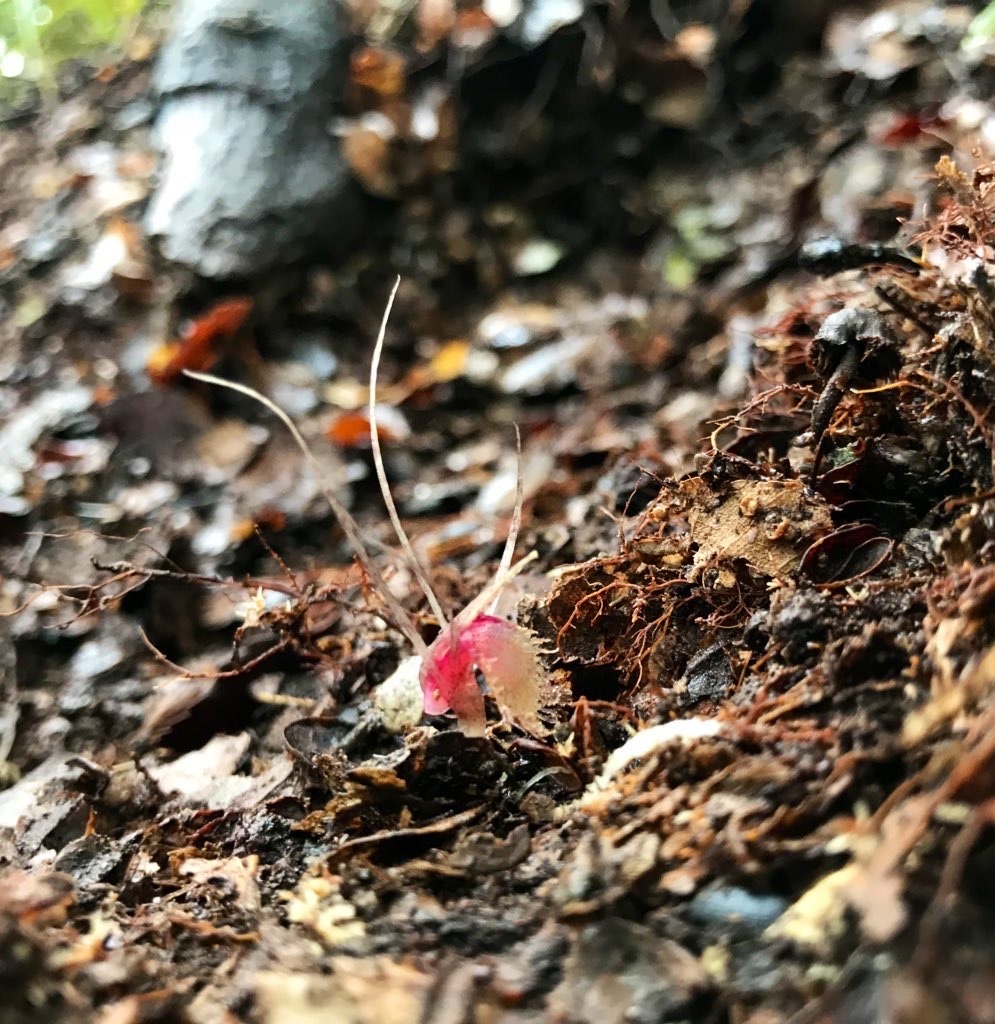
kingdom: Plantae
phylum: Tracheophyta
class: Liliopsida
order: Asparagales
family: Orchidaceae
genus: Corybas
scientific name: Corybas cryptanthus
